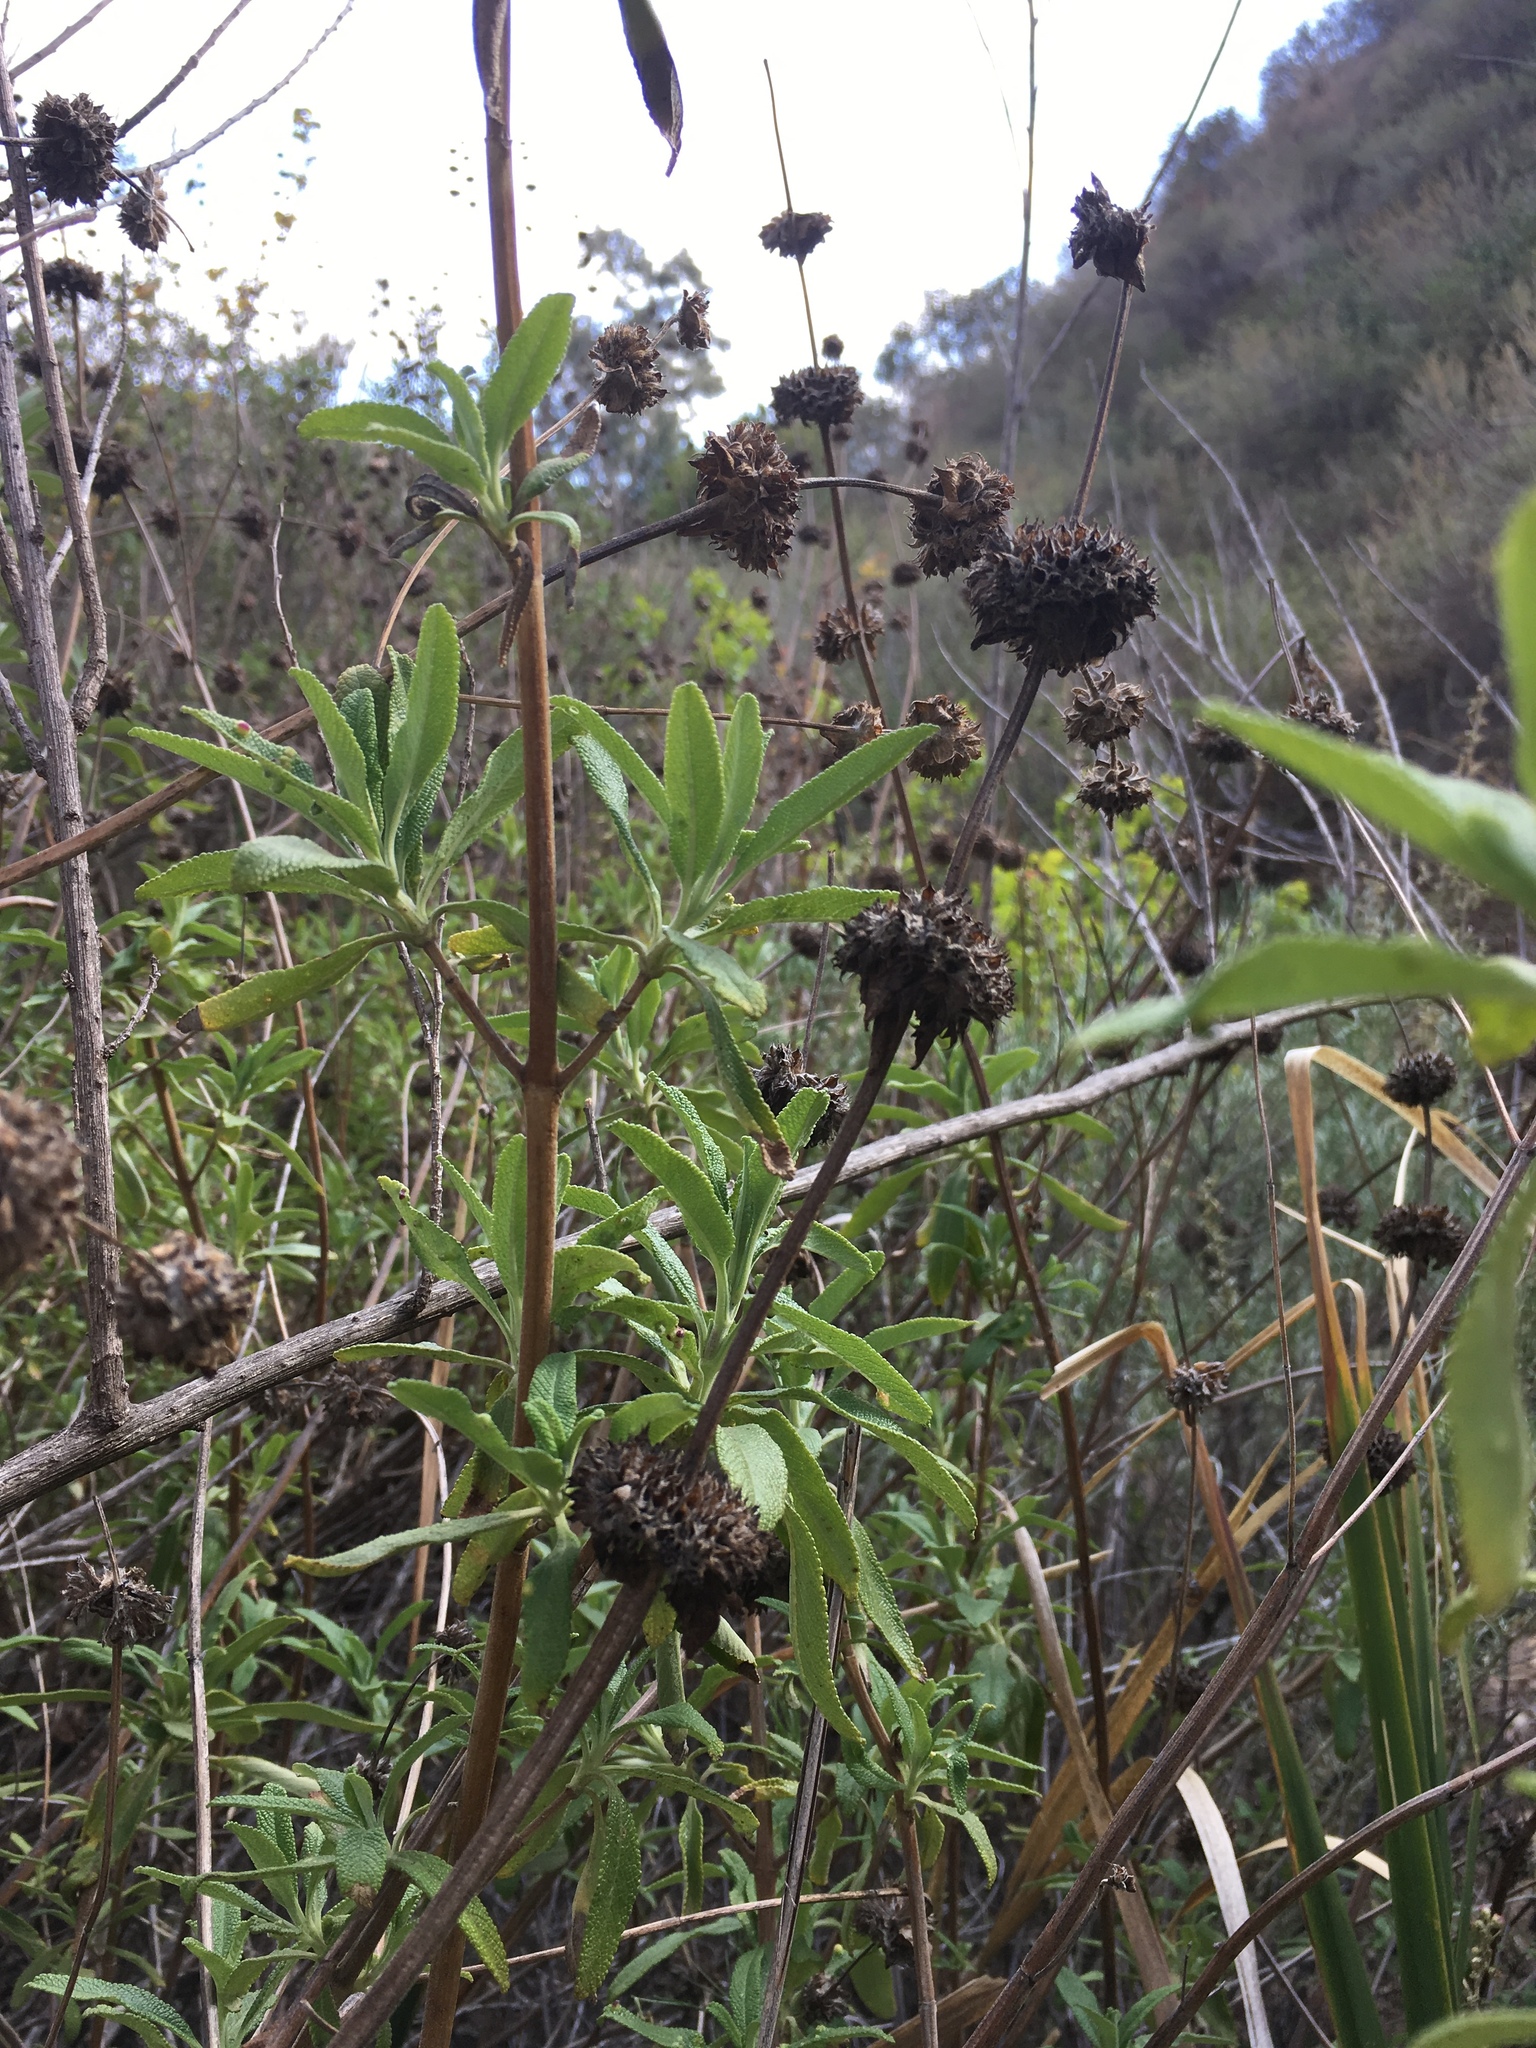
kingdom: Plantae
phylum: Tracheophyta
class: Magnoliopsida
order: Lamiales
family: Lamiaceae
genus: Salvia
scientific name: Salvia mellifera
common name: Black sage
